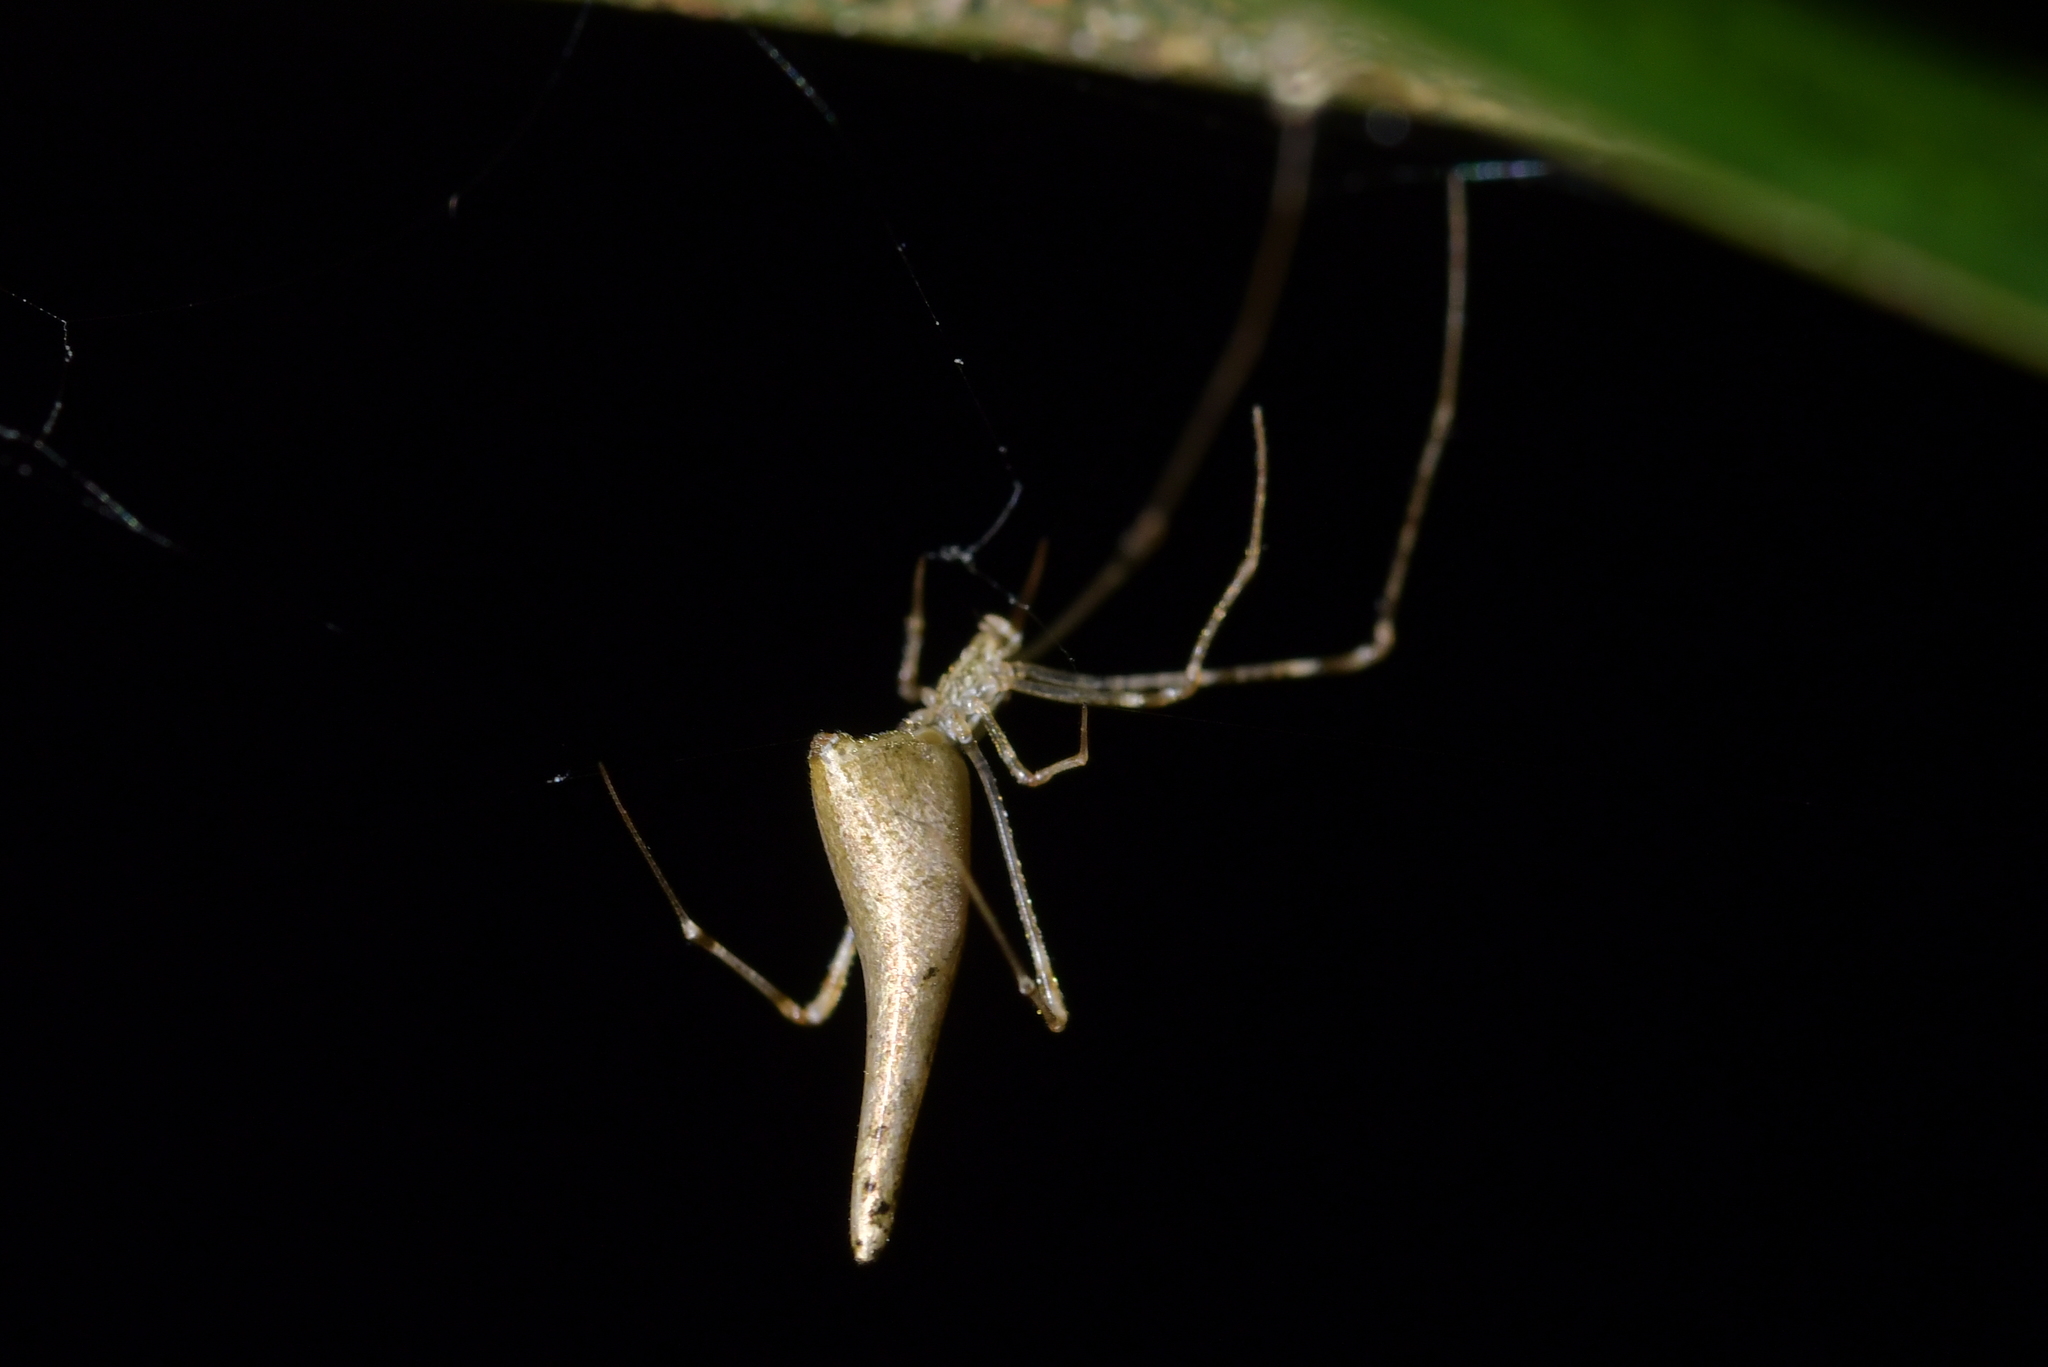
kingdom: Animalia
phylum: Arthropoda
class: Arachnida
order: Araneae
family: Theridiidae
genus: Rhomphaea
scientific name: Rhomphaea urquharti
